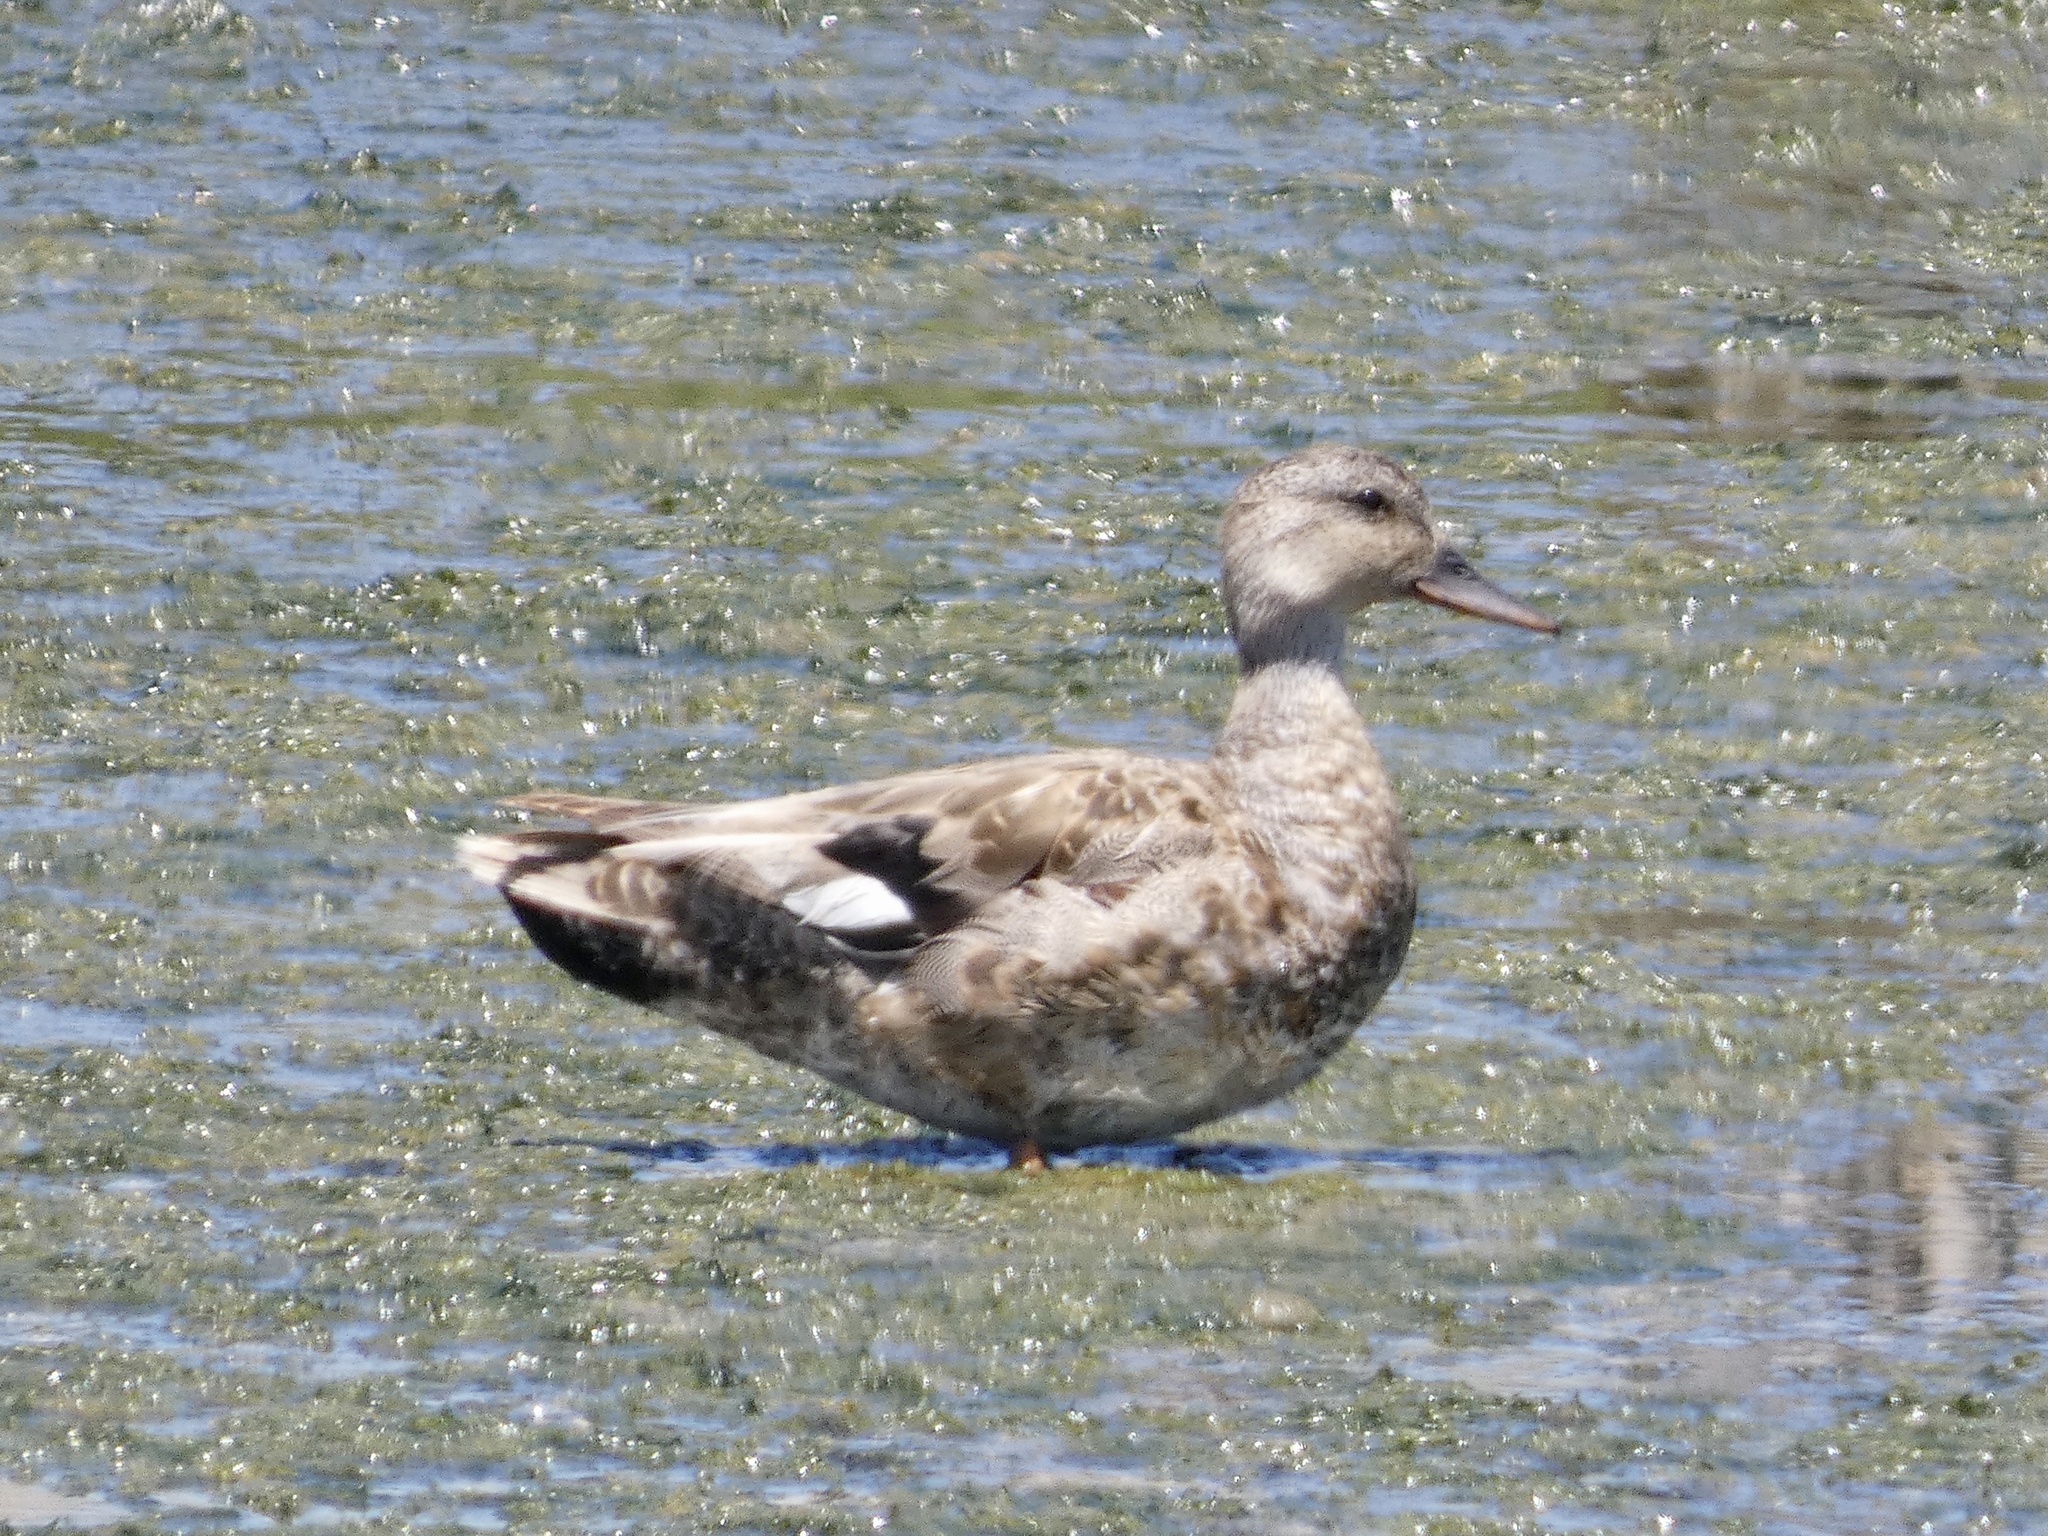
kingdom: Animalia
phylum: Chordata
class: Aves
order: Anseriformes
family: Anatidae
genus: Mareca
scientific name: Mareca strepera
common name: Gadwall
